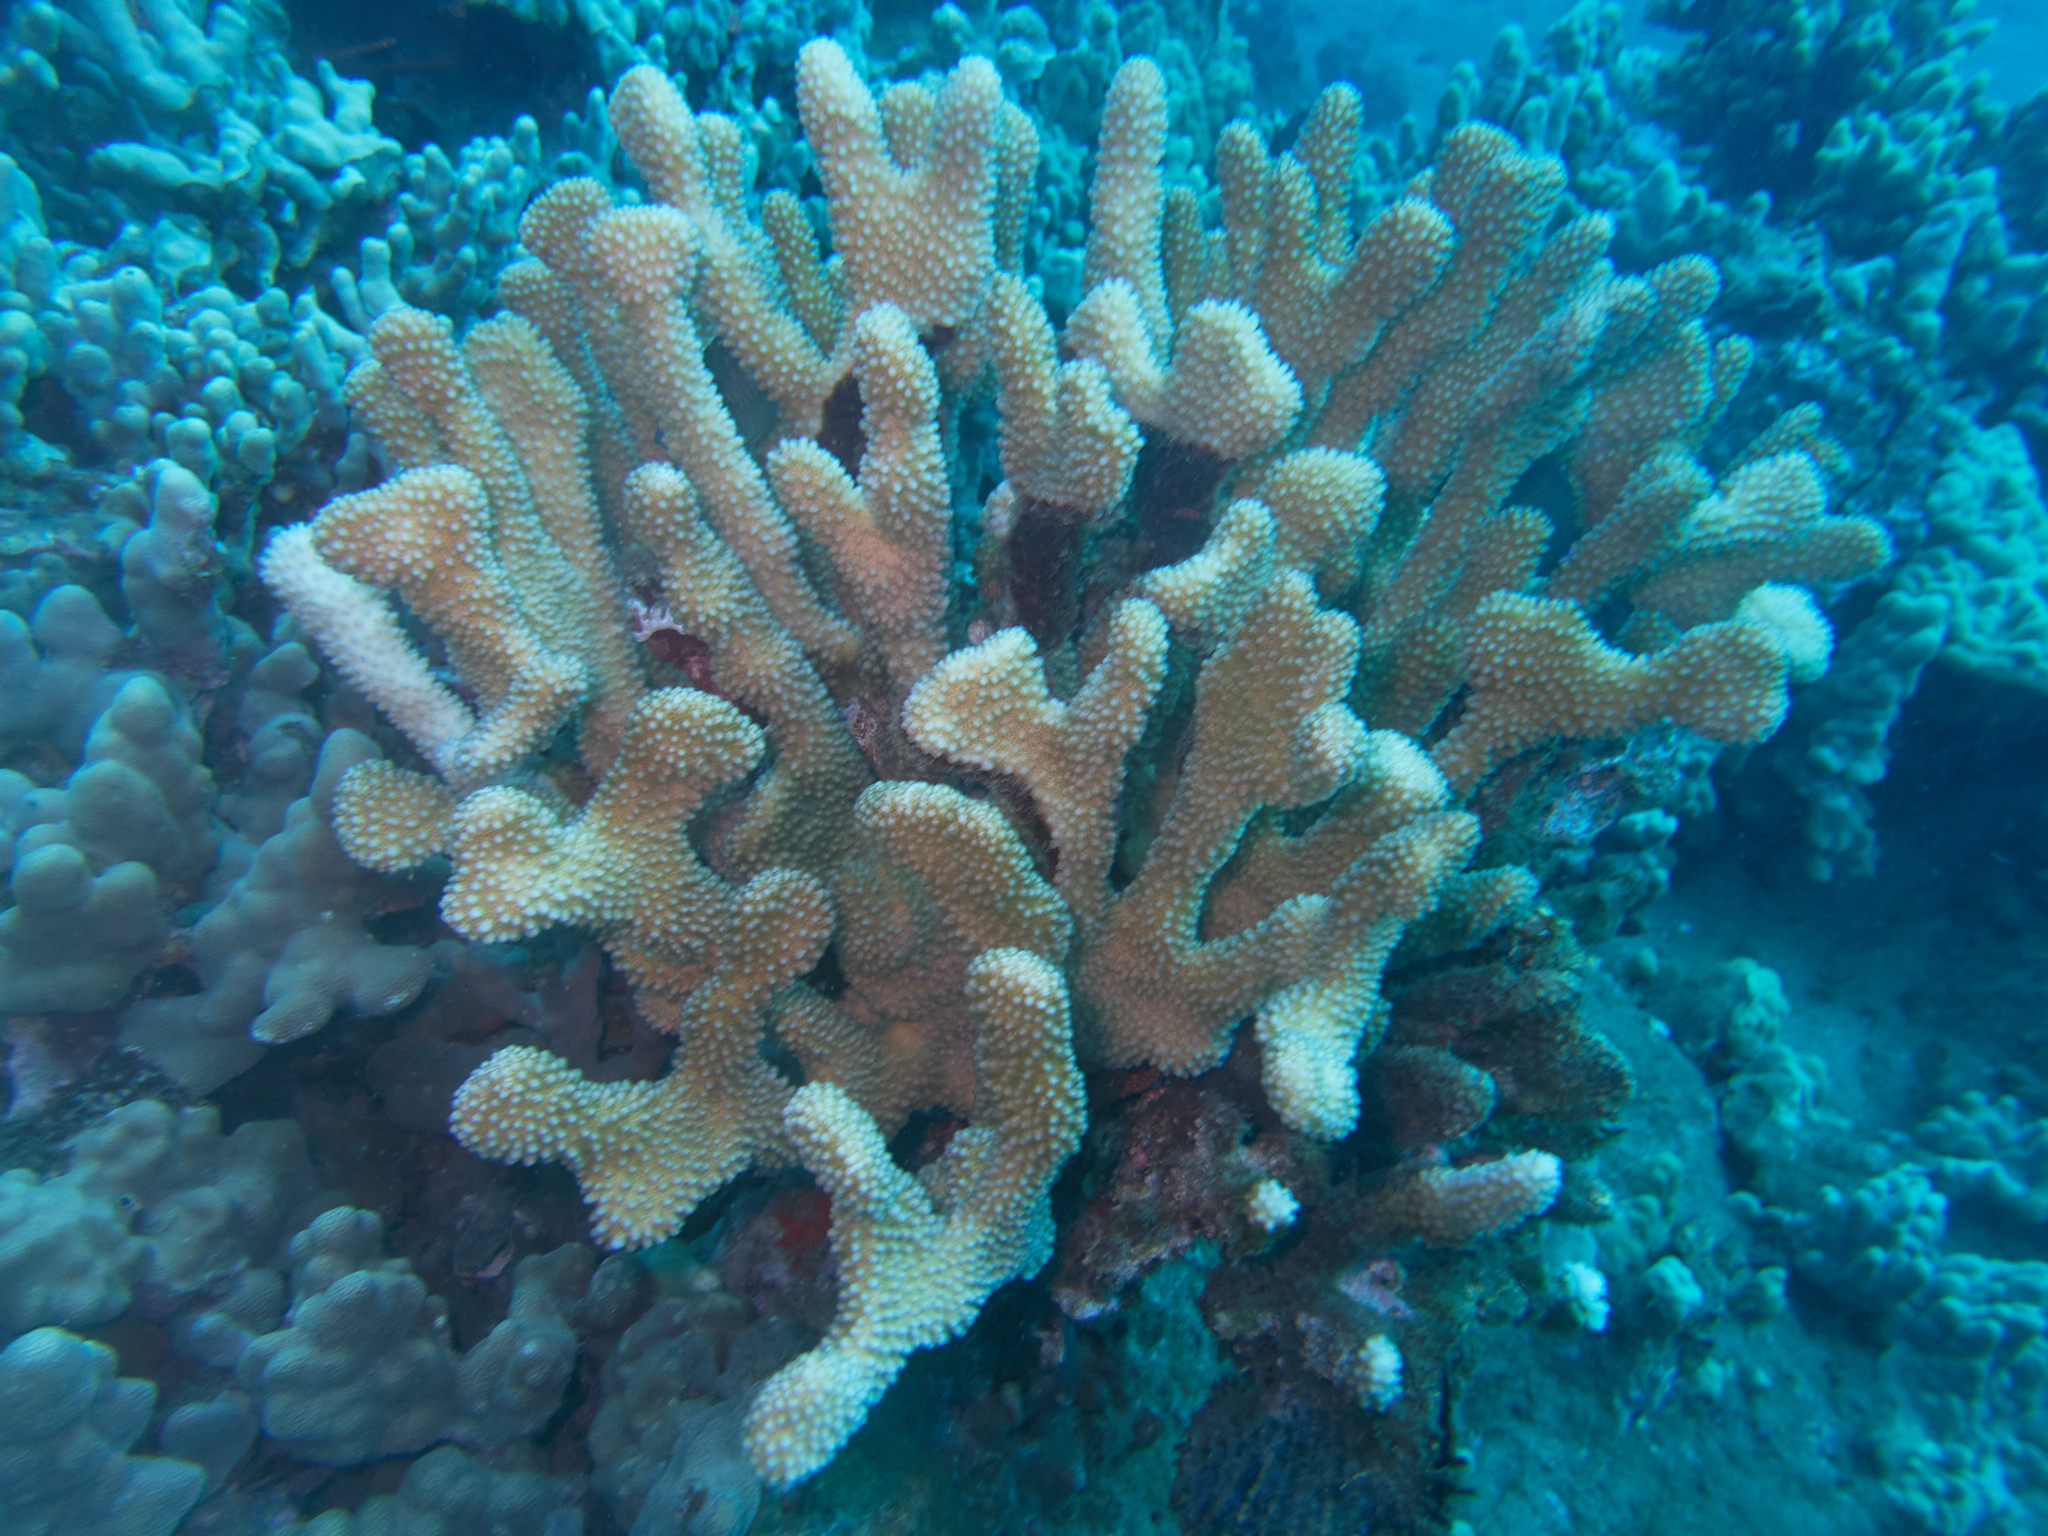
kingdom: Animalia
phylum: Cnidaria
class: Anthozoa
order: Scleractinia
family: Pocilloporidae
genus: Pocillopora
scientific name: Pocillopora grandis
